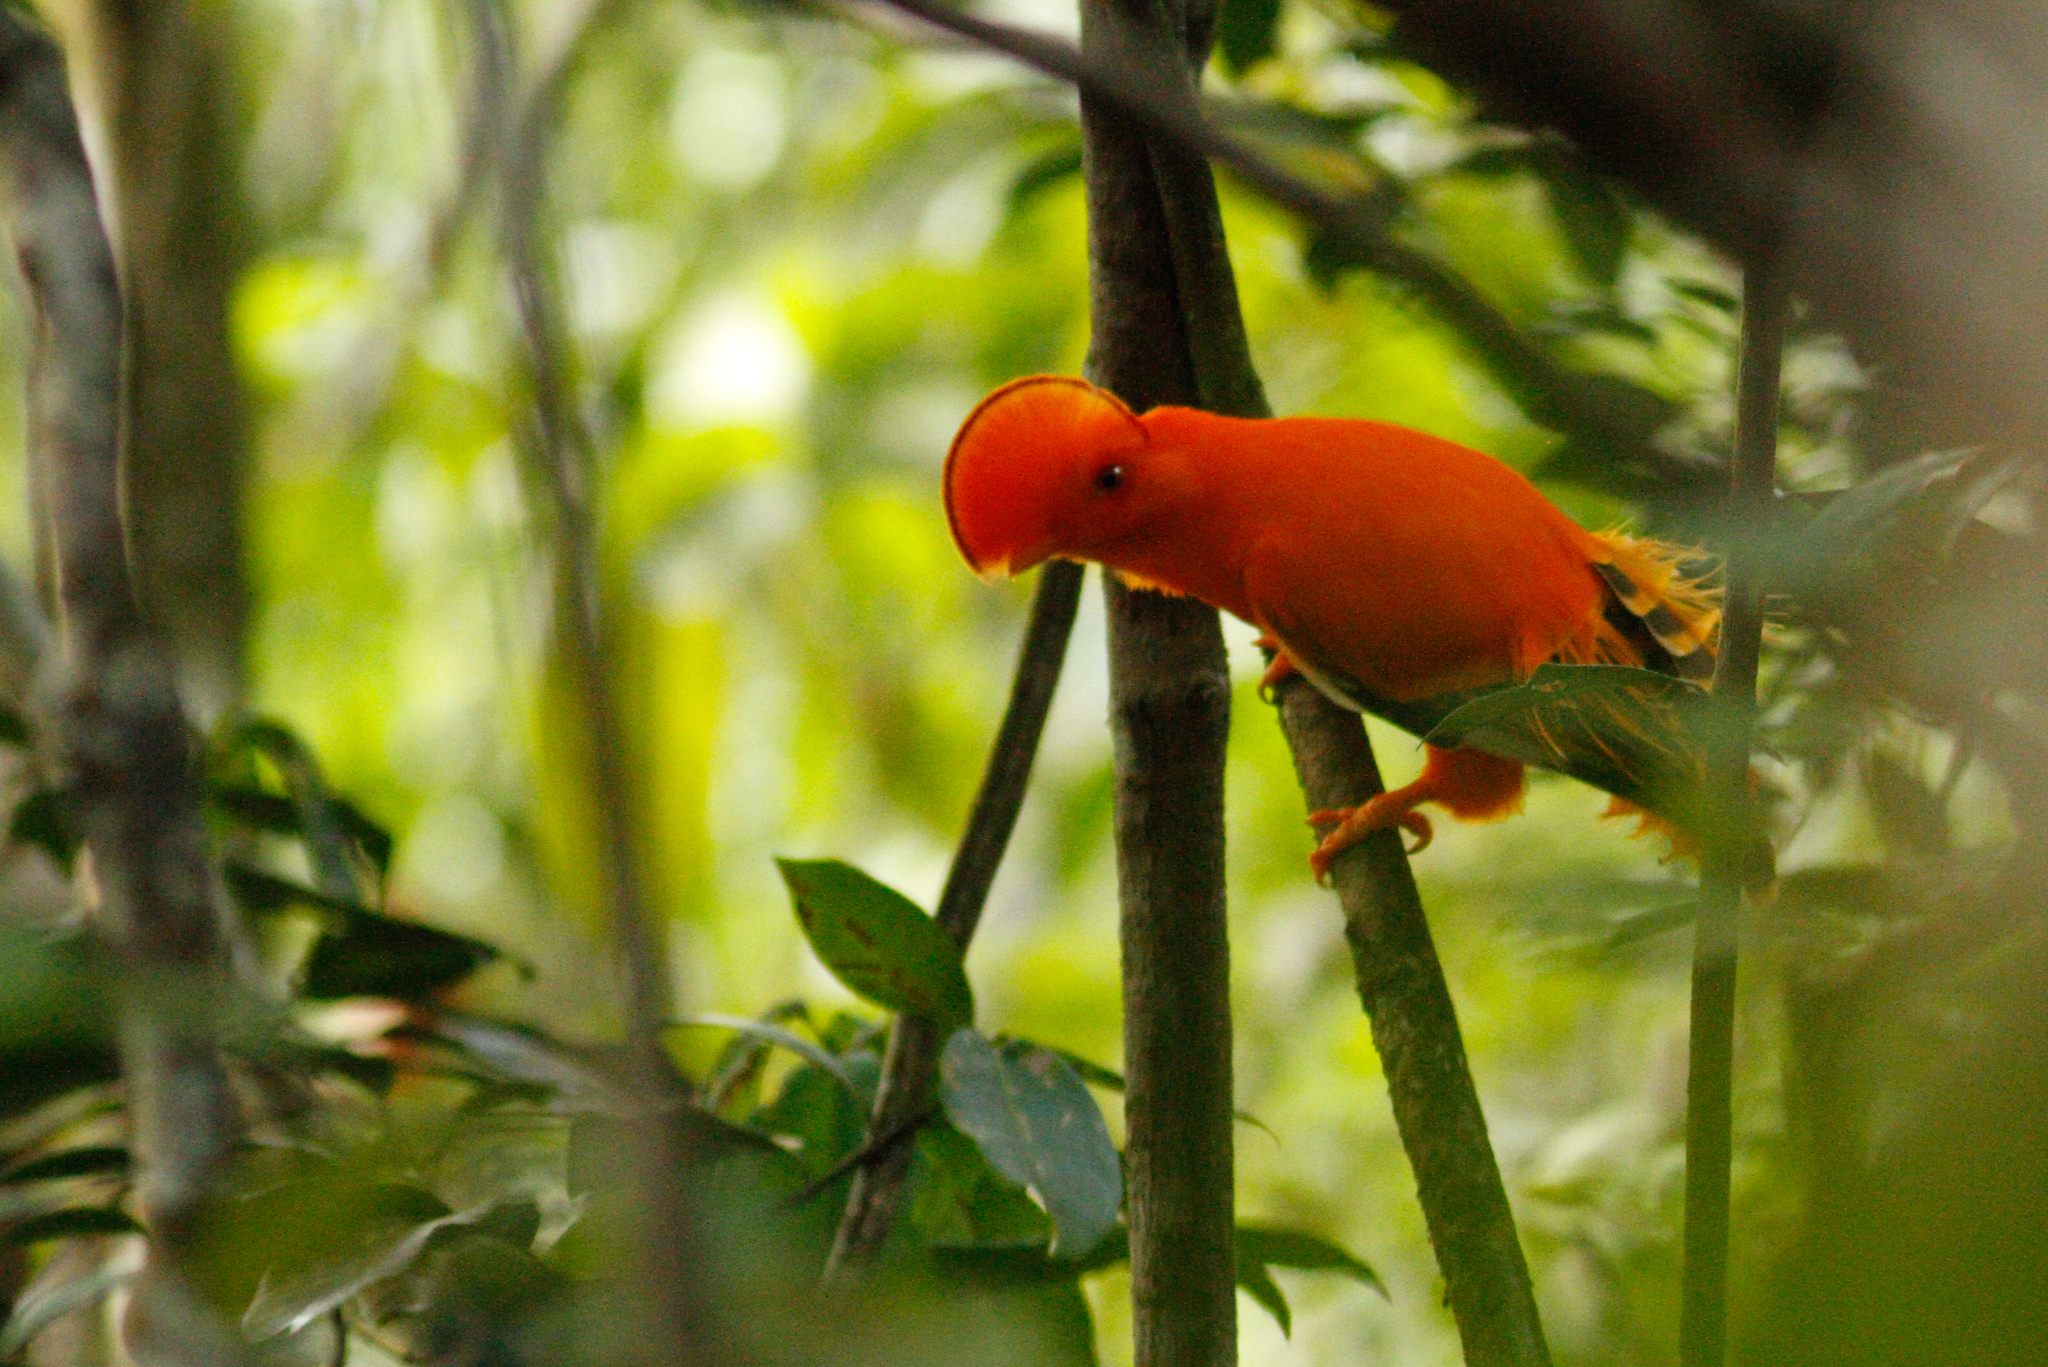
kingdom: Animalia
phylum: Chordata
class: Aves
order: Passeriformes
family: Cotingidae
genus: Rupicola
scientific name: Rupicola rupicola
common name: Guianan cock-of-the-rock
